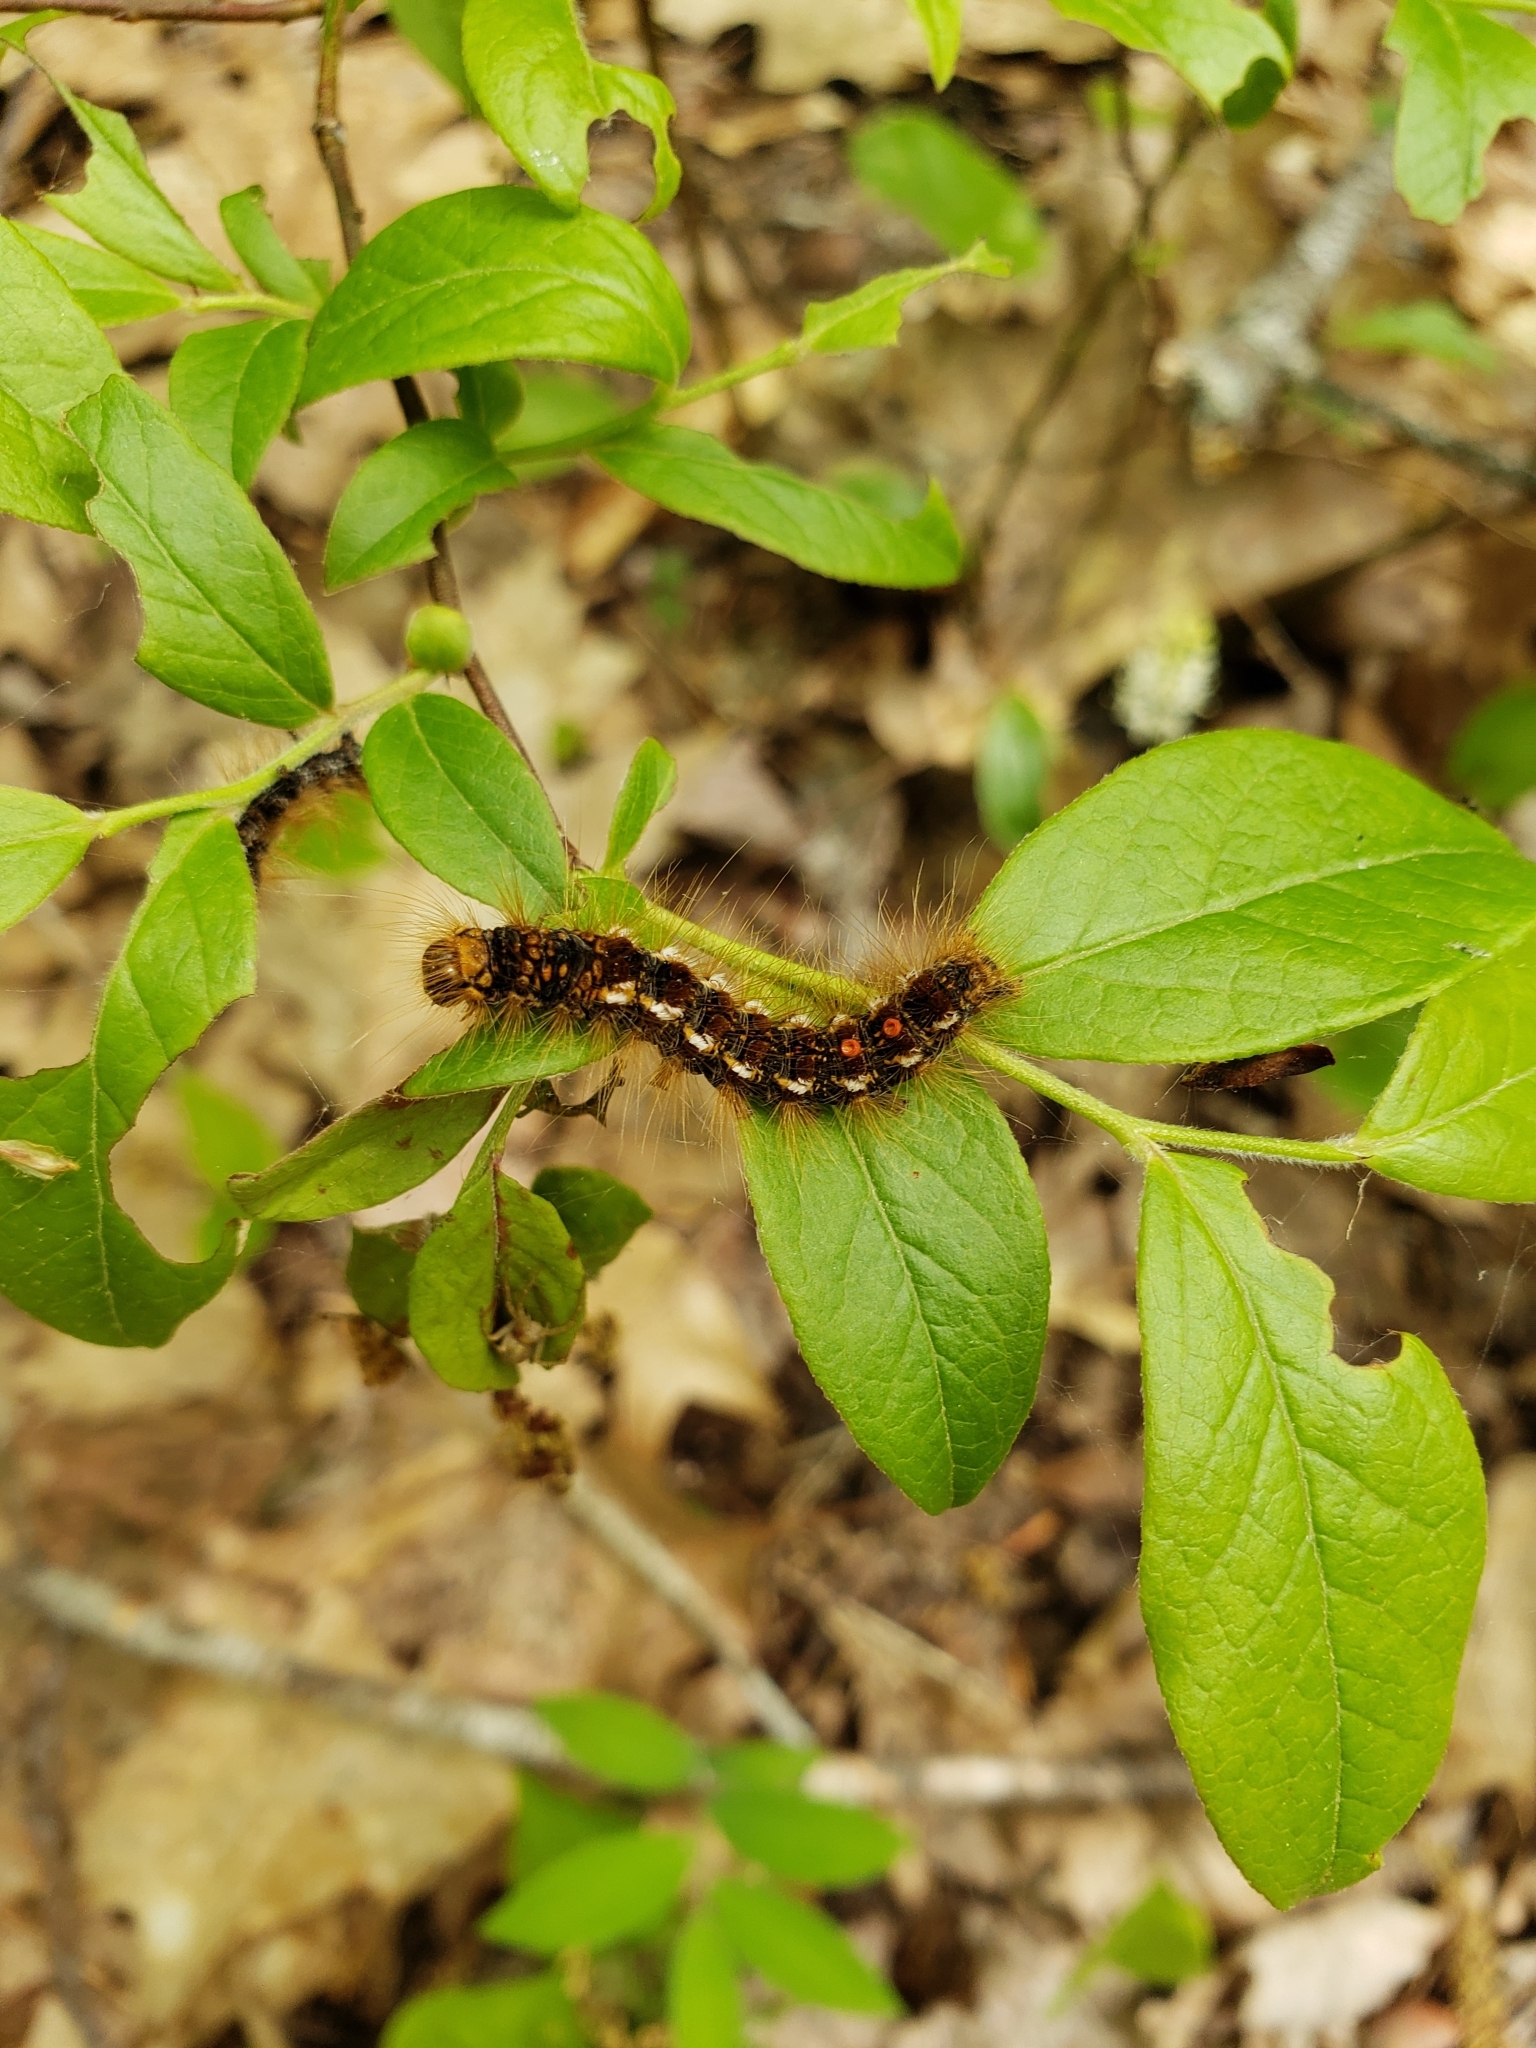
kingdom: Animalia
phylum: Arthropoda
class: Insecta
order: Lepidoptera
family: Erebidae
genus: Euproctis
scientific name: Euproctis chrysorrhoea
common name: Brown-tail
